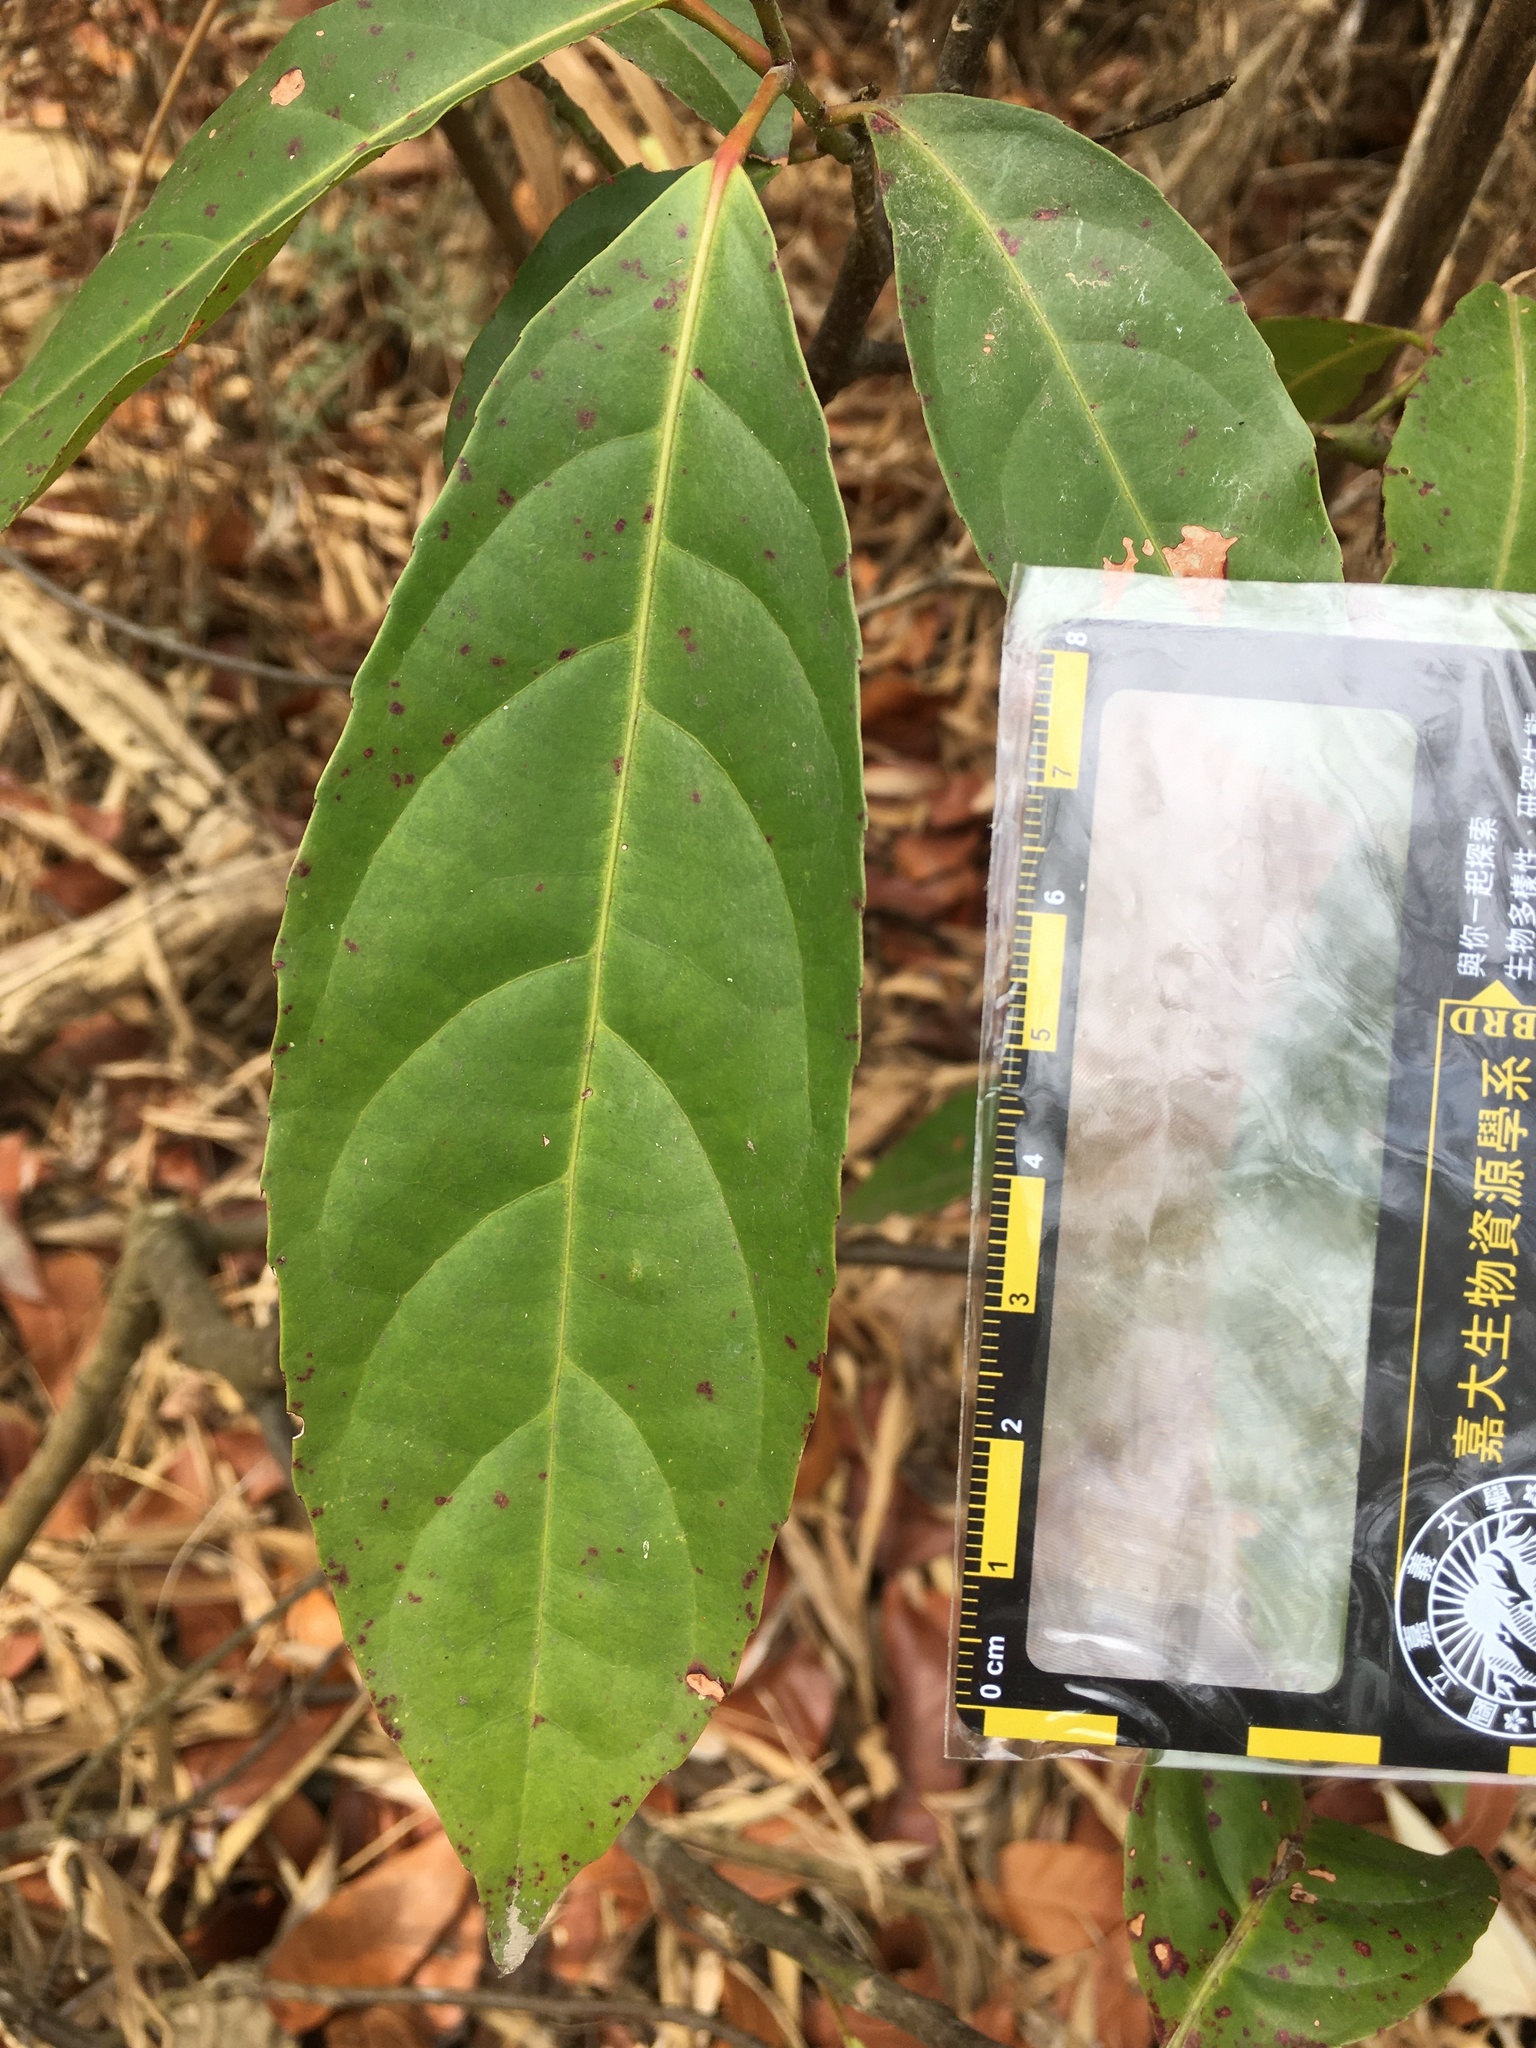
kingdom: Plantae
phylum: Tracheophyta
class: Magnoliopsida
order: Oxalidales
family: Elaeocarpaceae
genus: Elaeocarpus
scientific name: Elaeocarpus serratus
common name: Ceylon-olive
